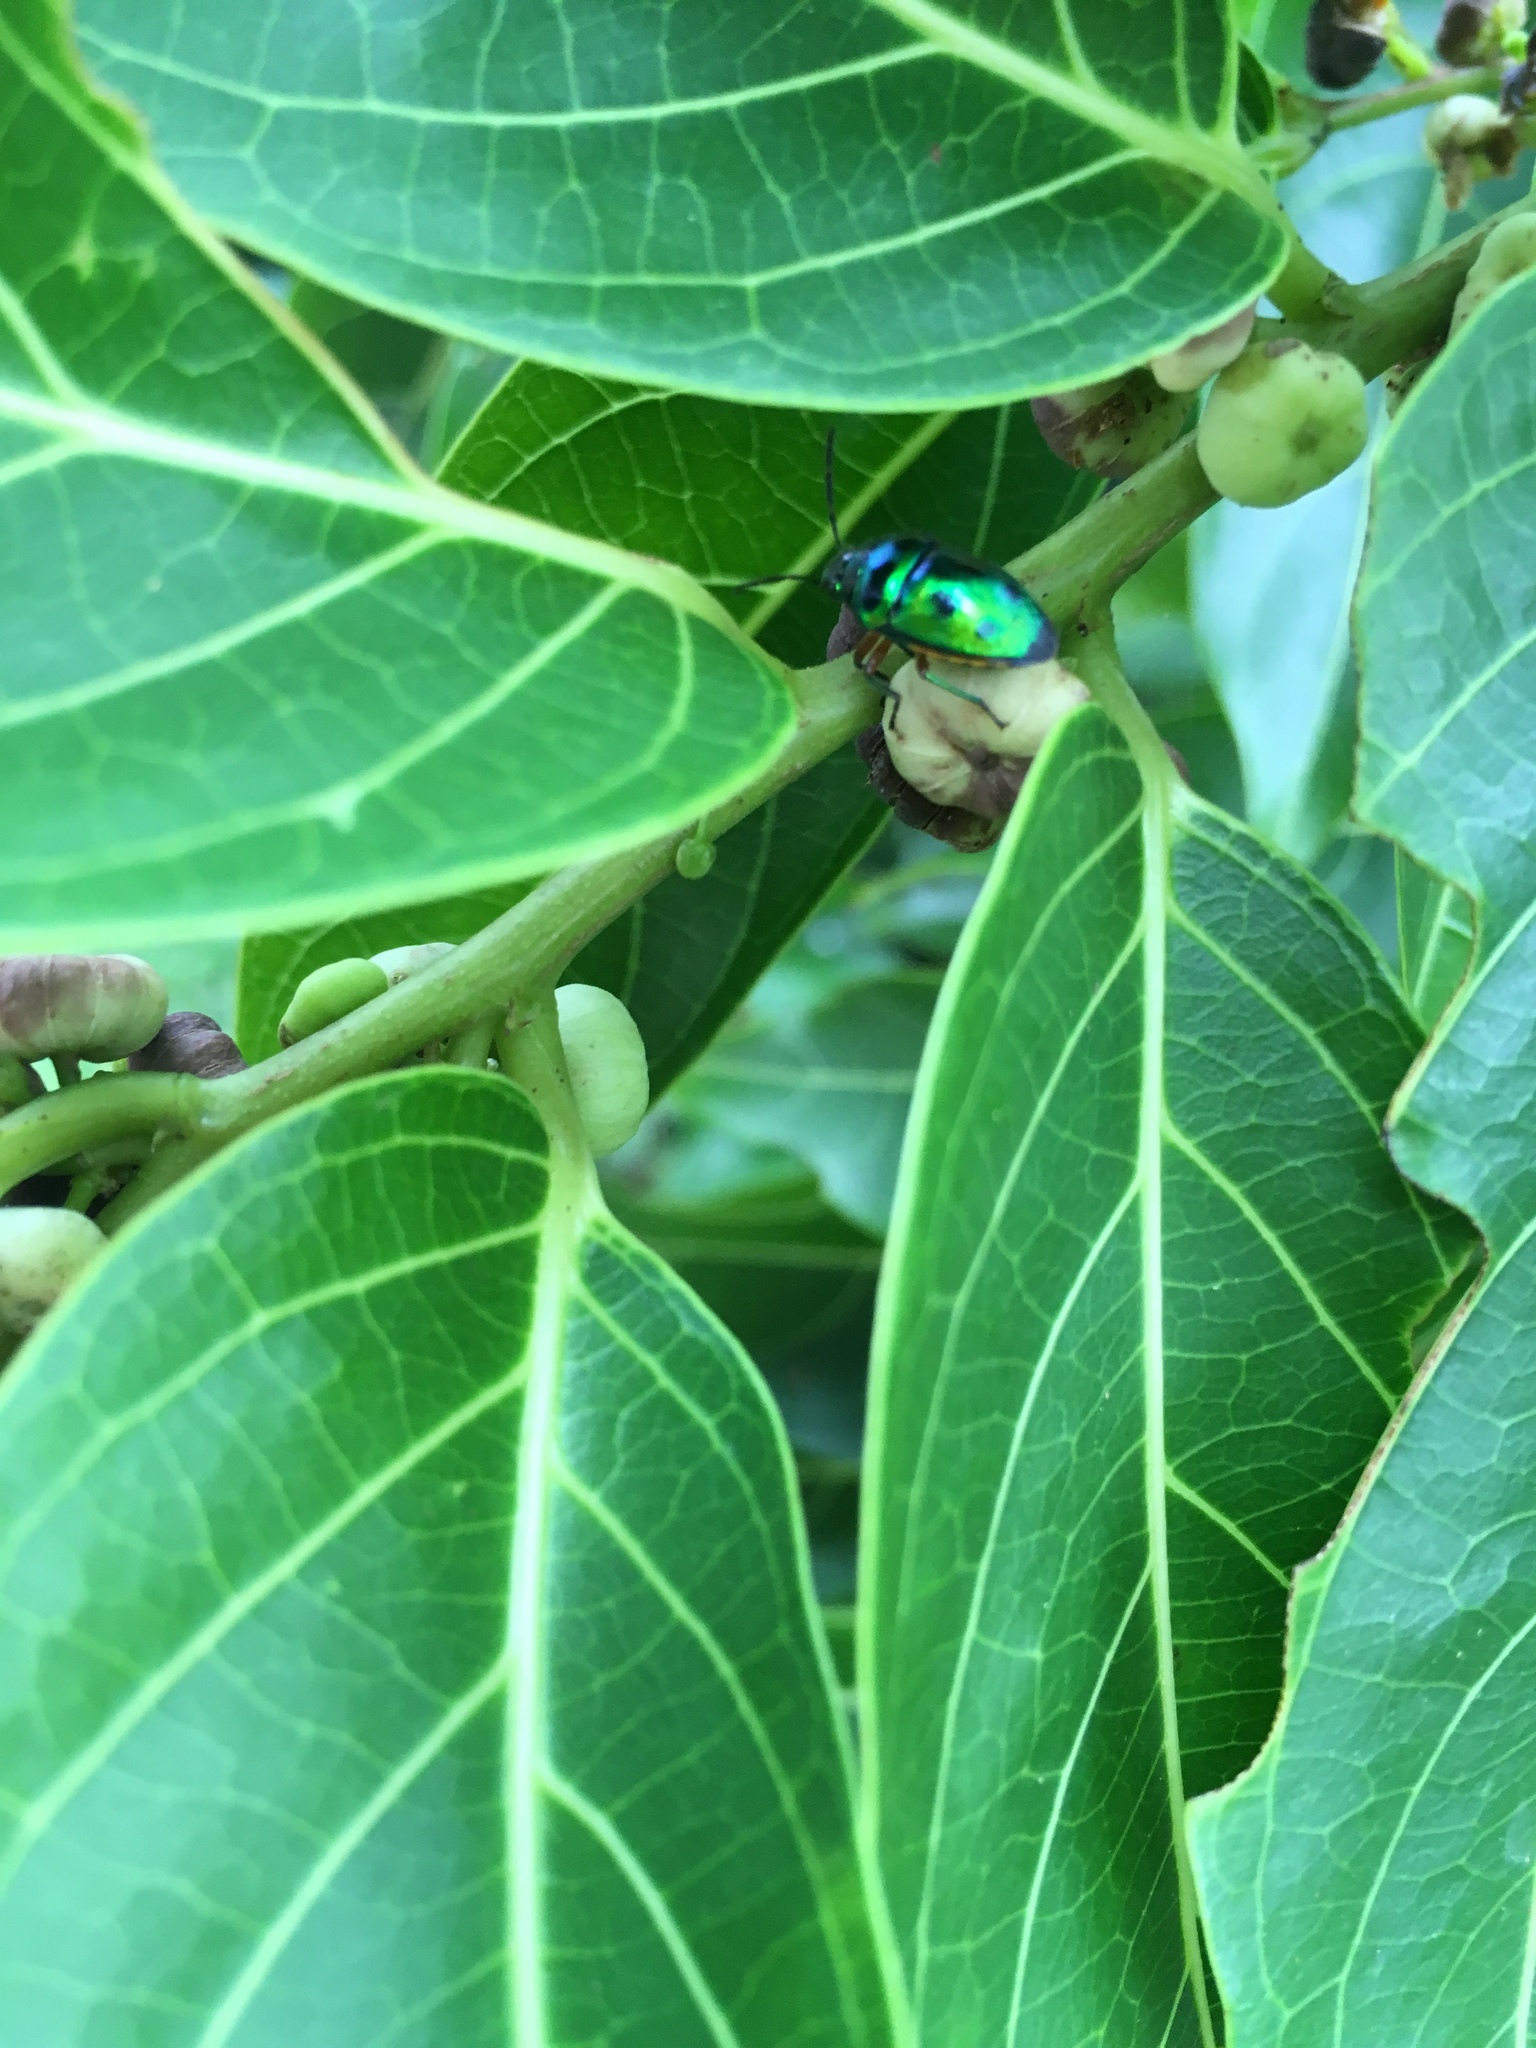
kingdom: Animalia
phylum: Arthropoda
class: Insecta
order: Hemiptera
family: Scutelleridae
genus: Lampromicra
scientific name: Lampromicra miyakona
